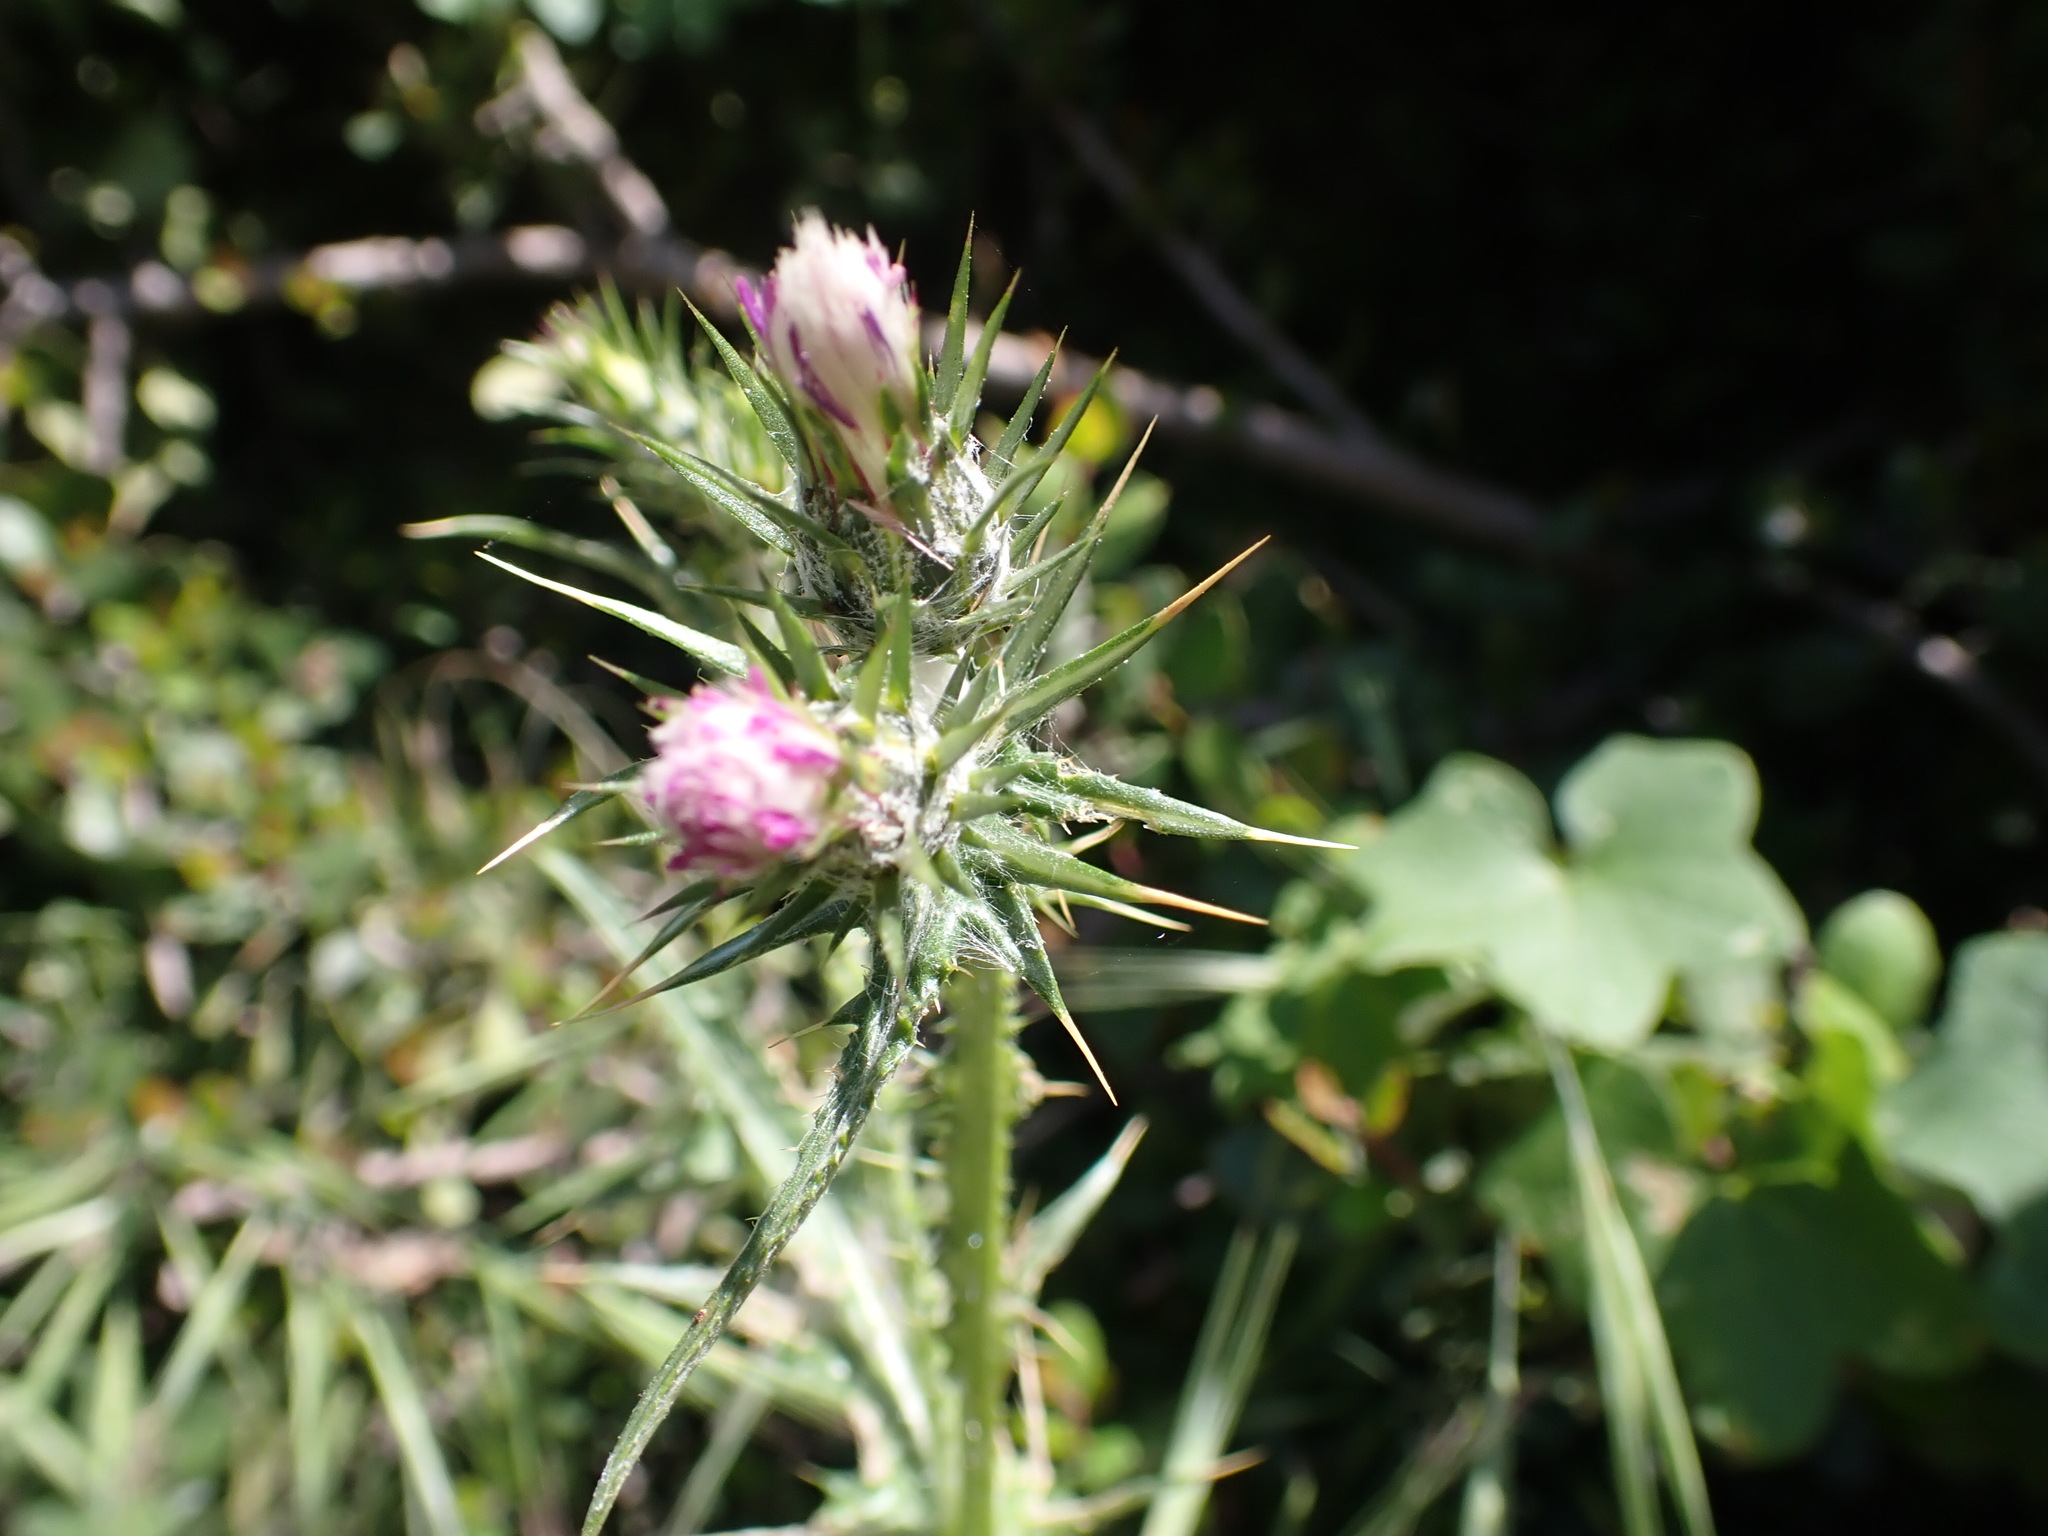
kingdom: Plantae
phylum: Tracheophyta
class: Magnoliopsida
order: Asterales
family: Asteraceae
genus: Carduus
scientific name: Carduus pycnocephalus
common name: Plymouth thistle
